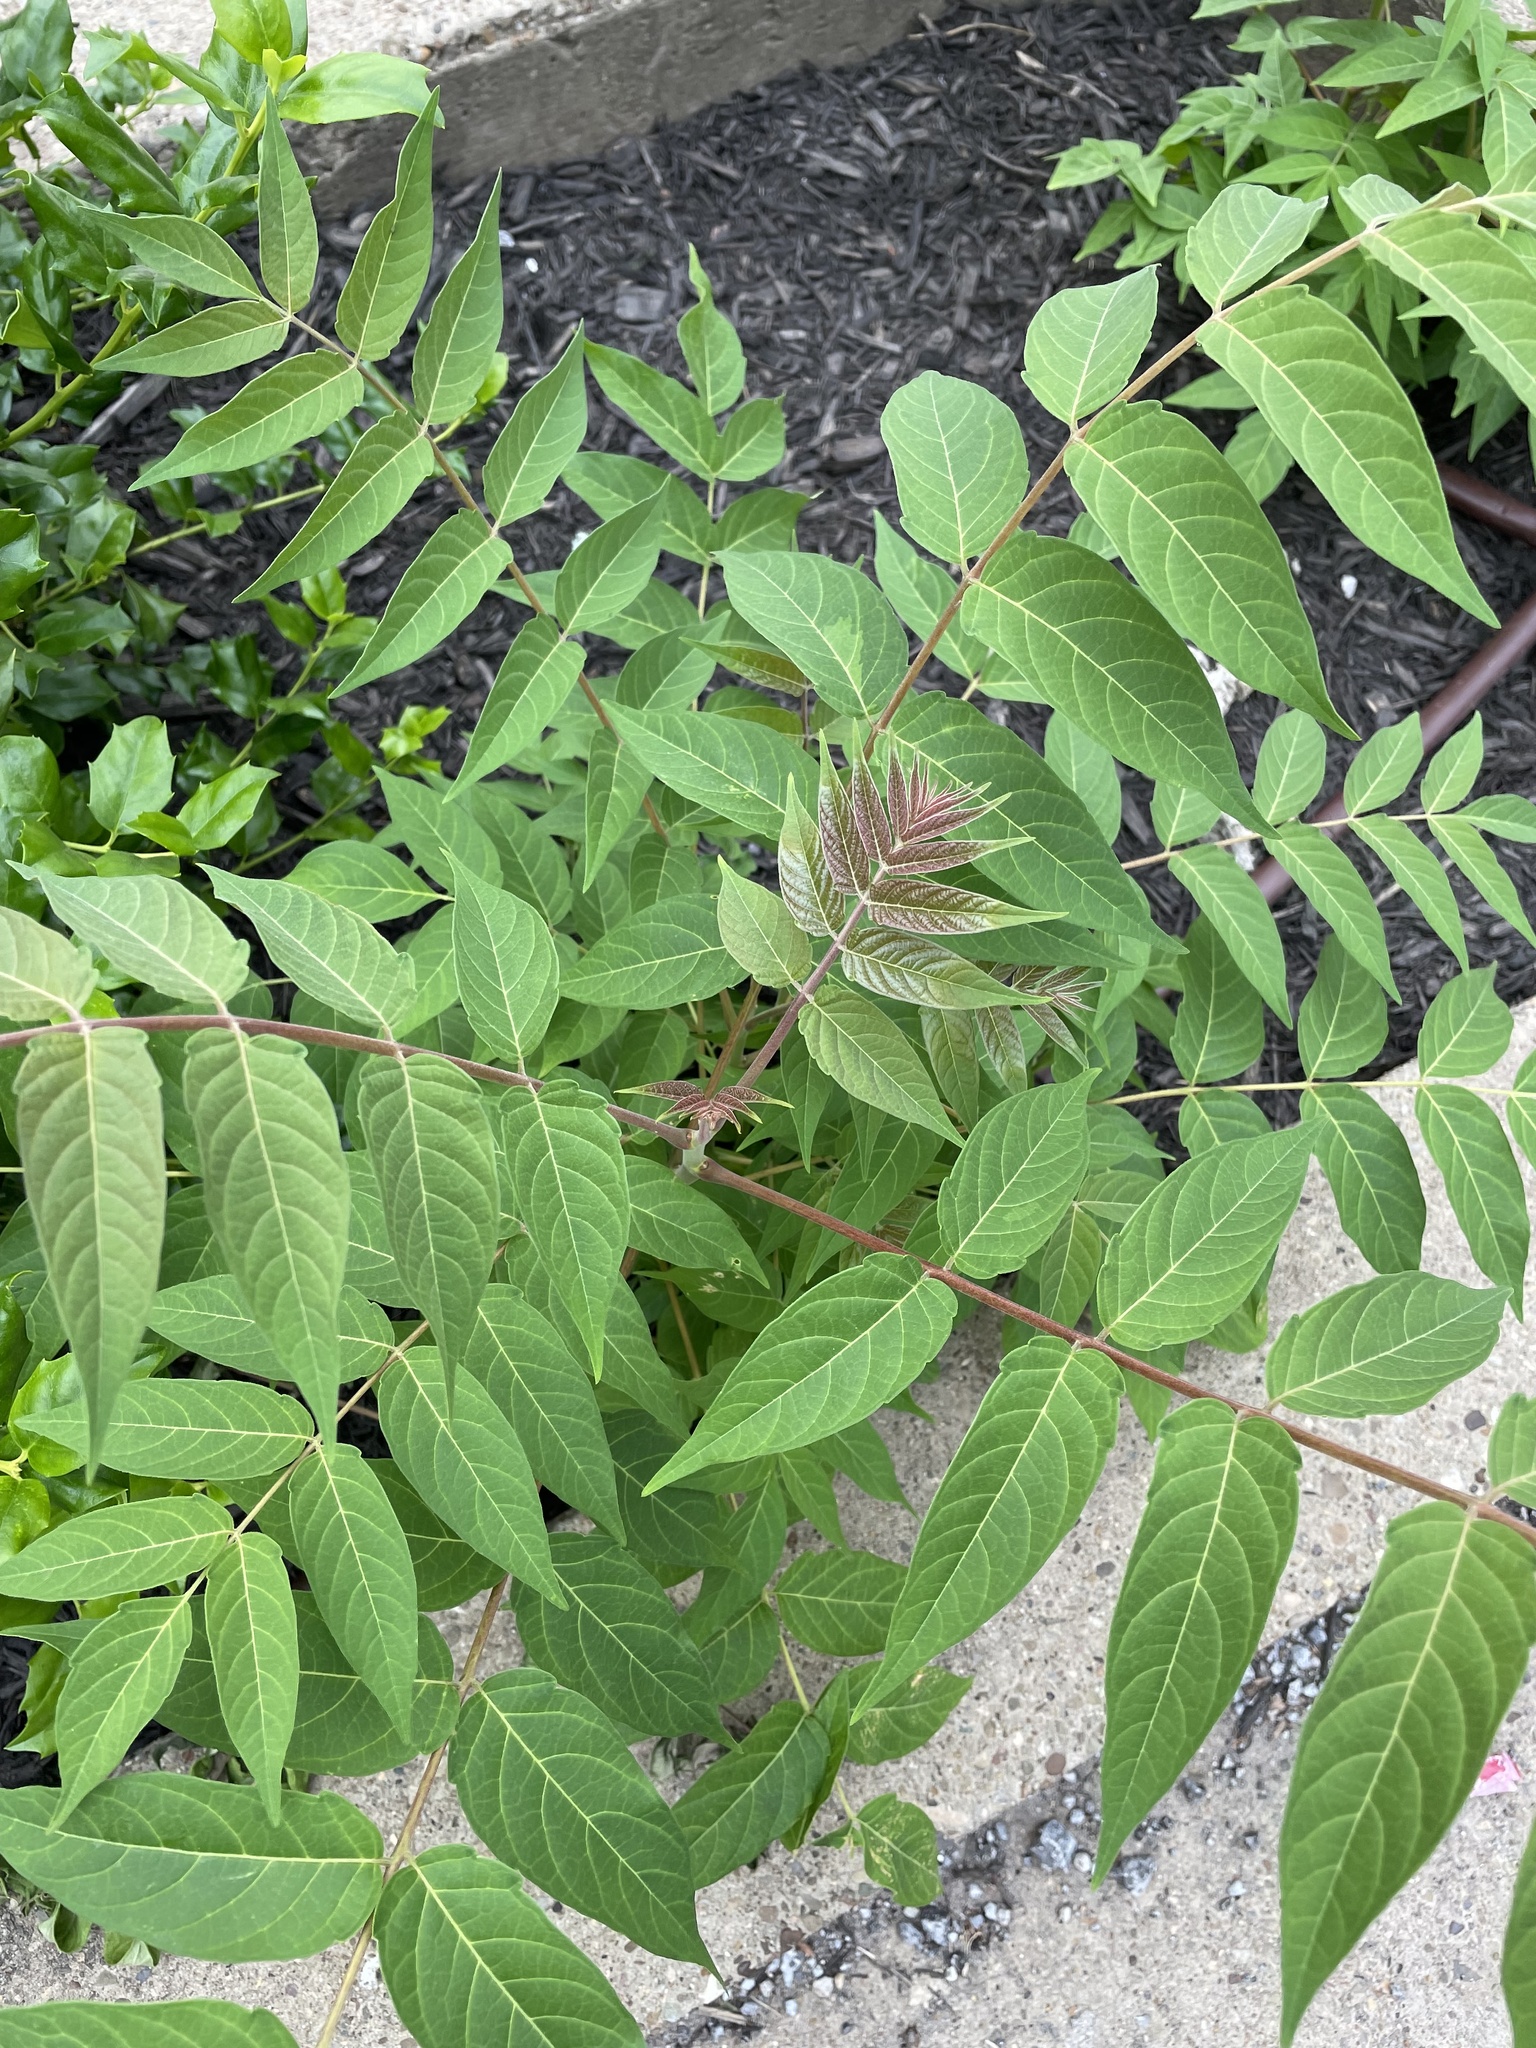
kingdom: Plantae
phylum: Tracheophyta
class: Magnoliopsida
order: Sapindales
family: Simaroubaceae
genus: Ailanthus
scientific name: Ailanthus altissima
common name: Tree-of-heaven
